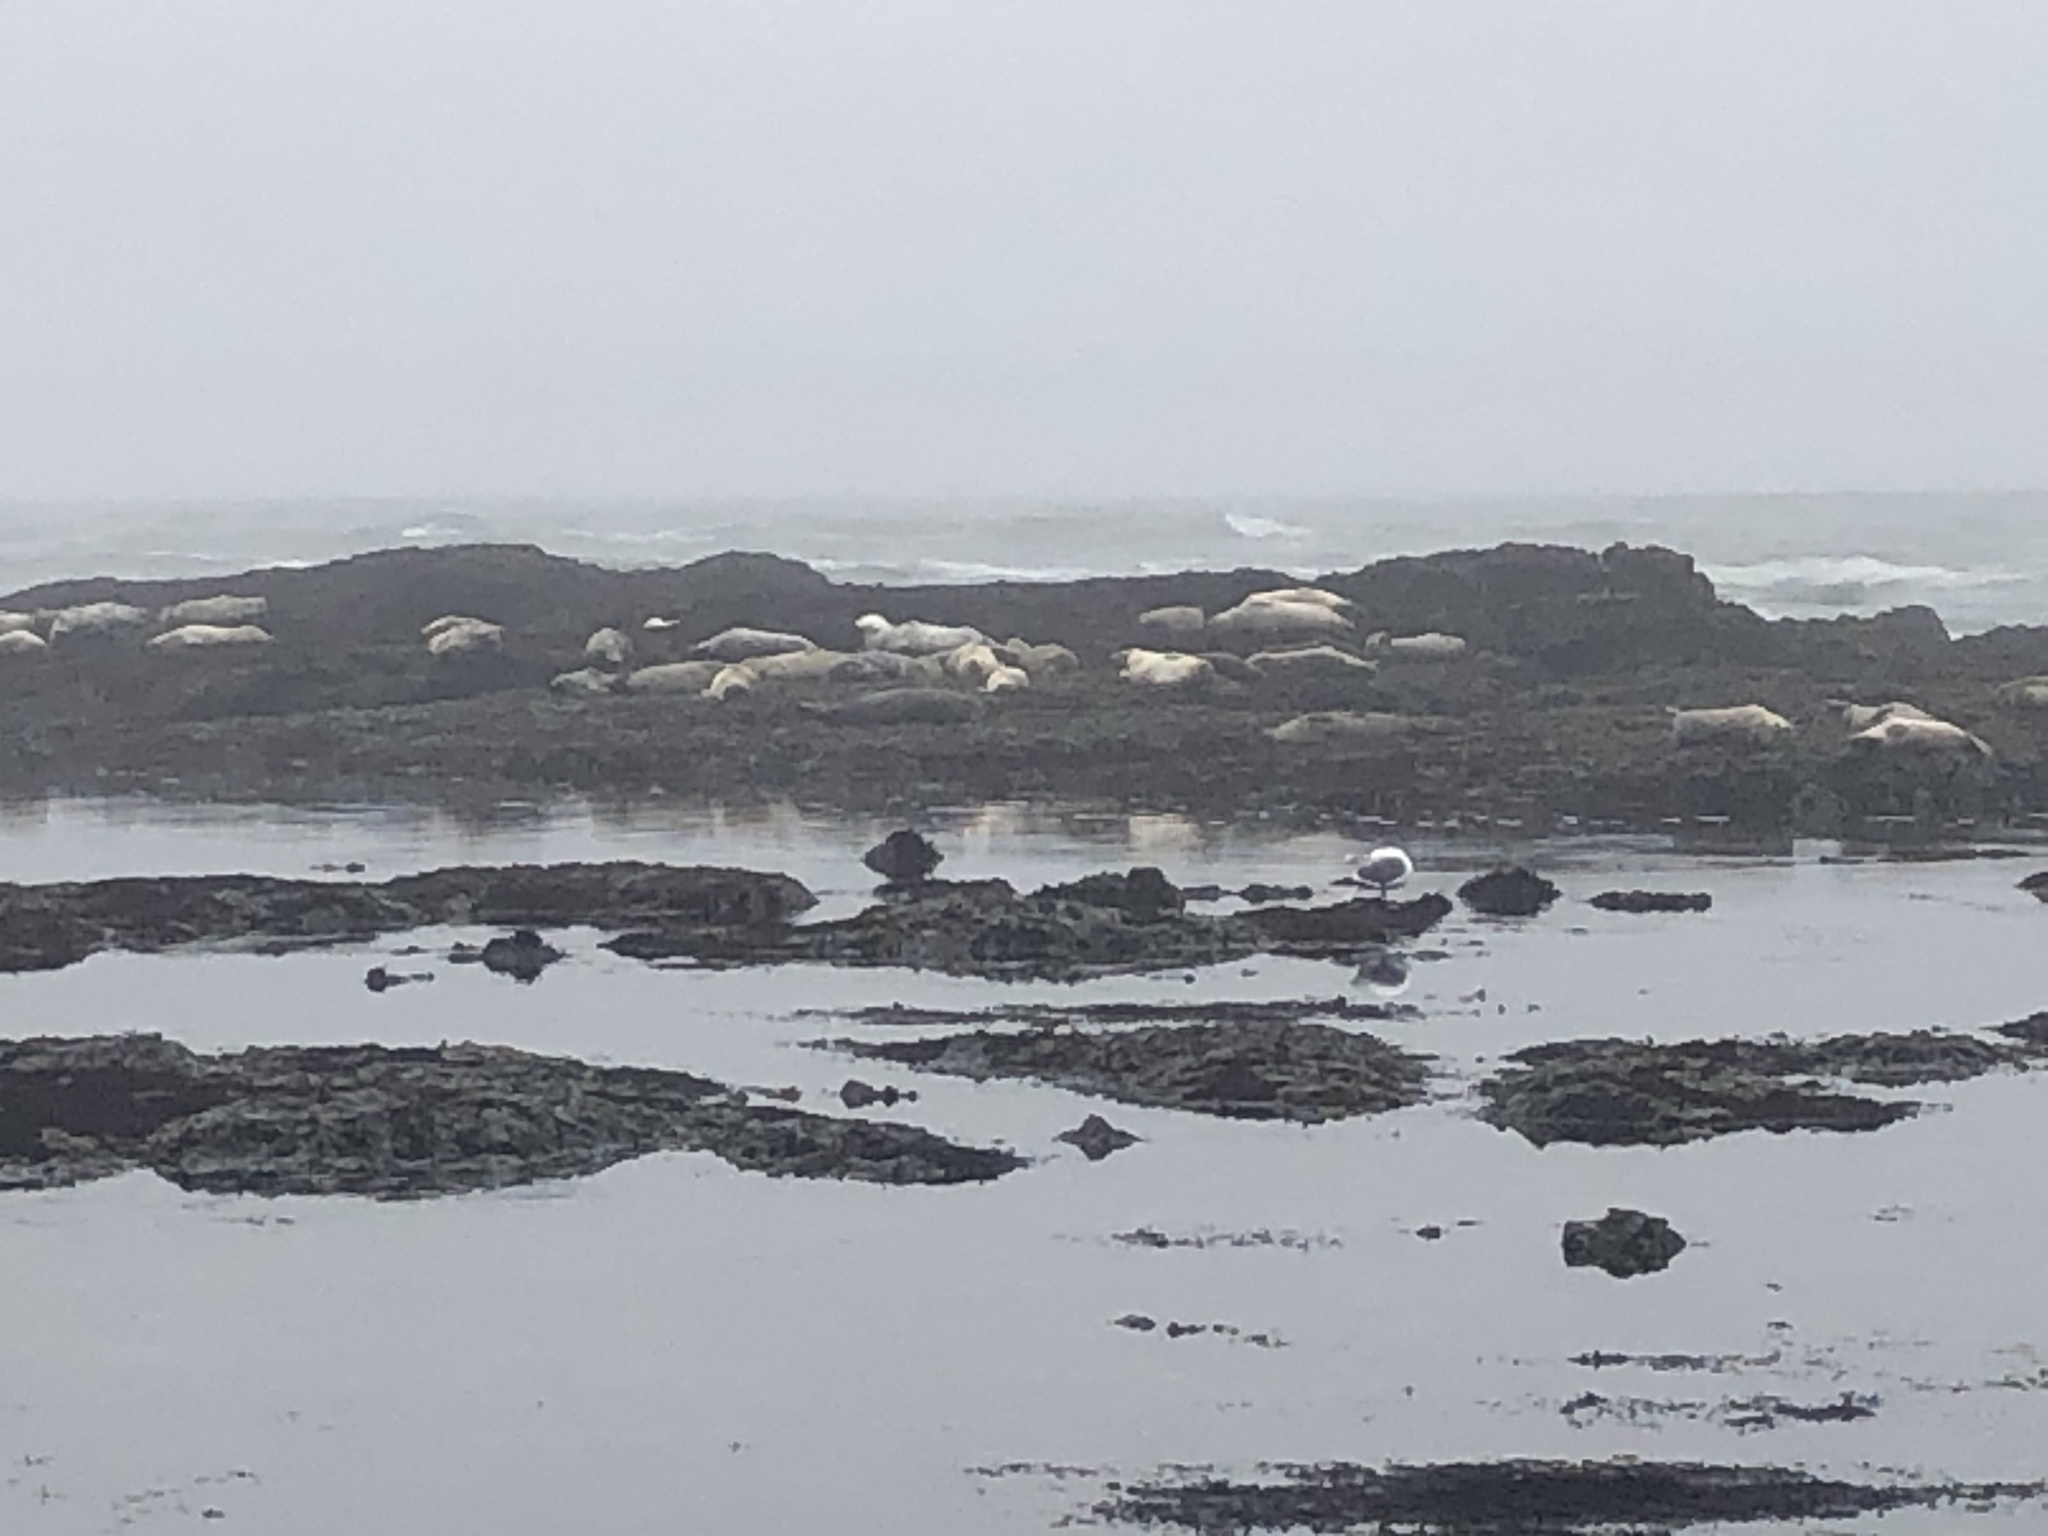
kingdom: Animalia
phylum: Chordata
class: Mammalia
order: Carnivora
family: Phocidae
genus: Phoca
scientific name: Phoca vitulina
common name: Harbor seal
